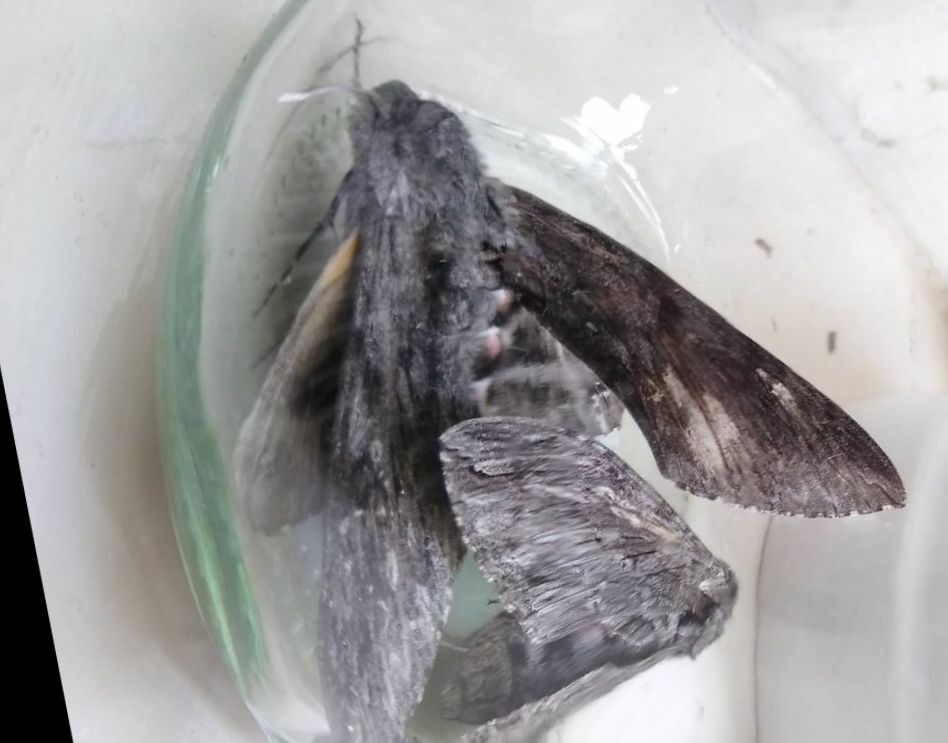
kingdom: Animalia
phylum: Arthropoda
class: Insecta
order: Lepidoptera
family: Sphingidae
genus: Agrius
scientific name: Agrius convolvuli
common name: Convolvulus hawkmoth
